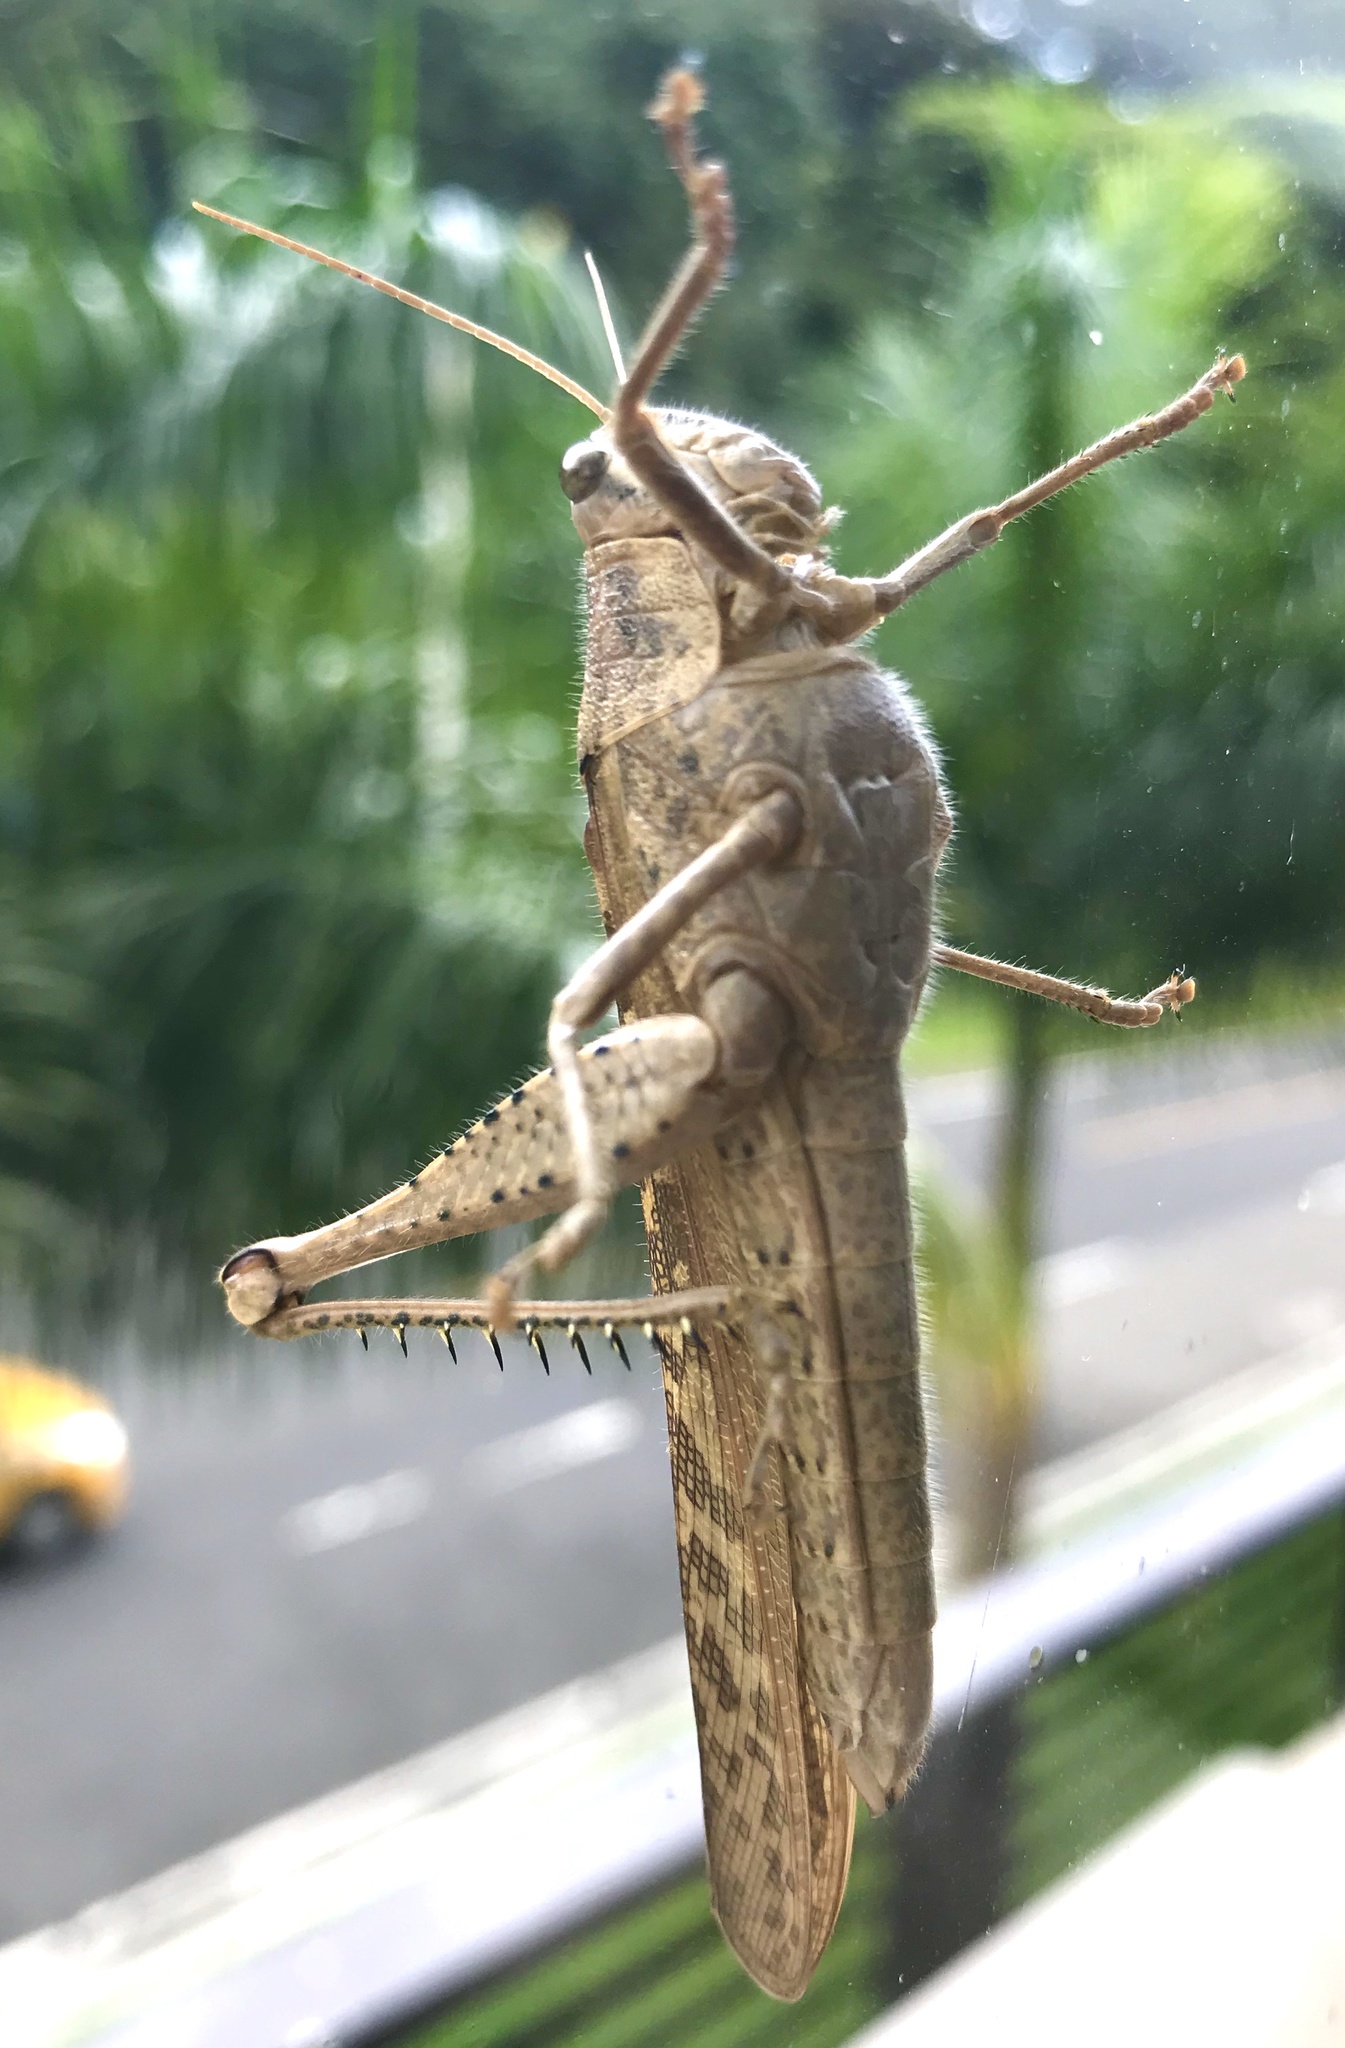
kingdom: Animalia
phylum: Arthropoda
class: Insecta
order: Orthoptera
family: Acrididae
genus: Schistocerca
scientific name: Schistocerca nitens
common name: Vagrant grasshopper
